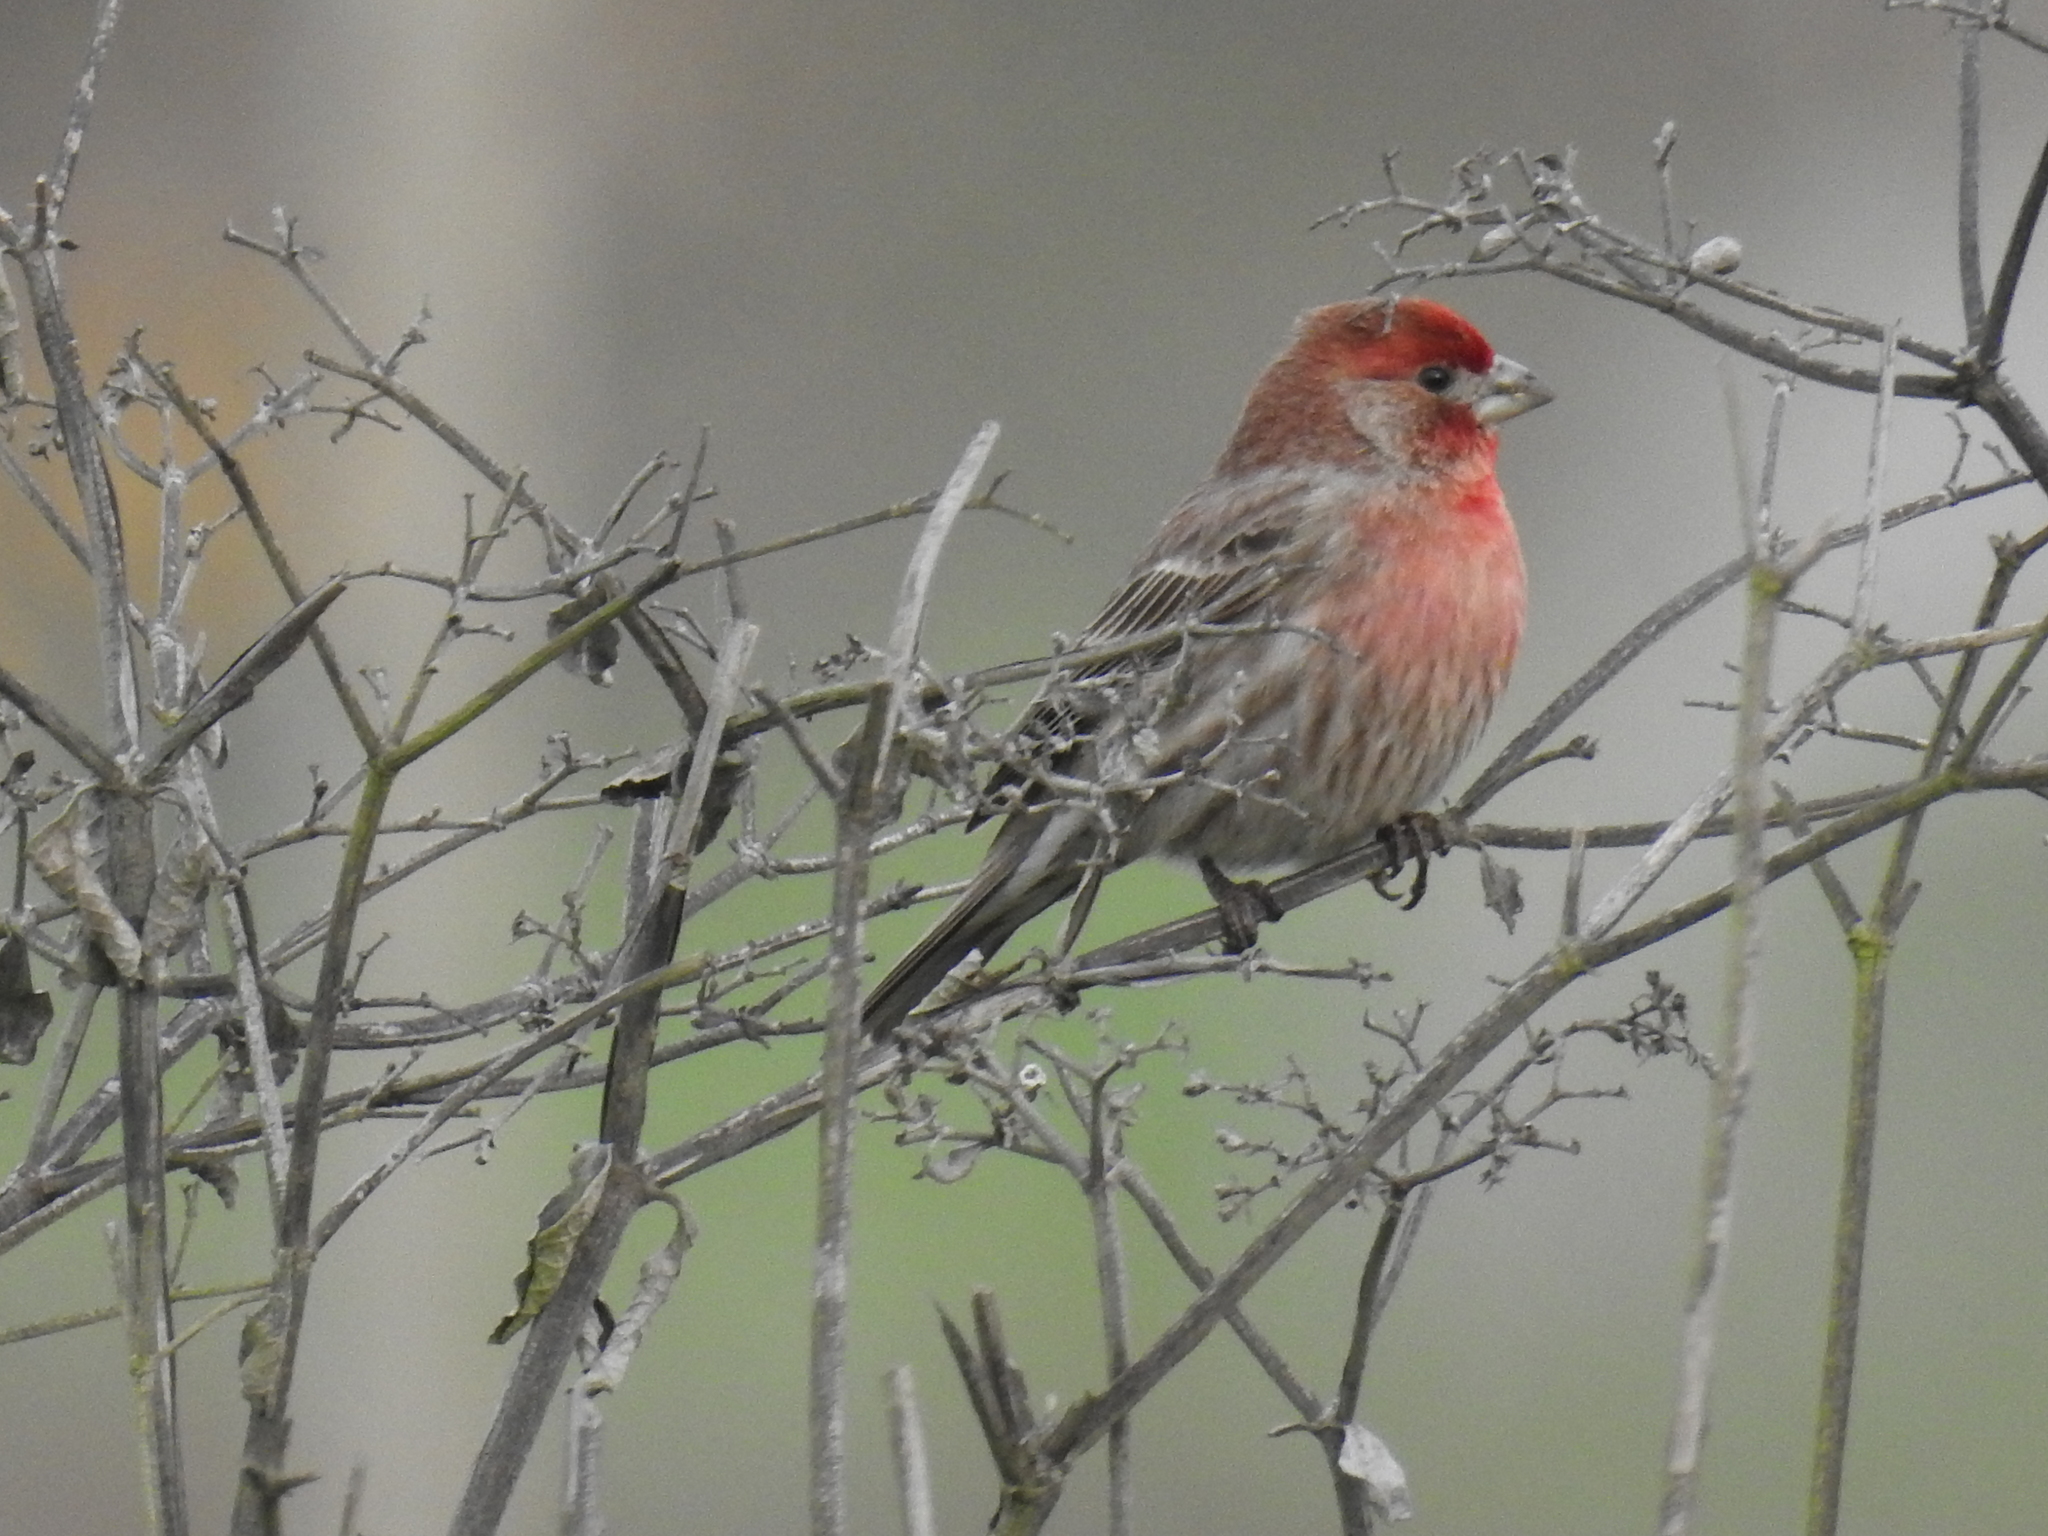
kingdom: Animalia
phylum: Chordata
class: Aves
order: Passeriformes
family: Fringillidae
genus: Haemorhous
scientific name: Haemorhous mexicanus
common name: House finch
